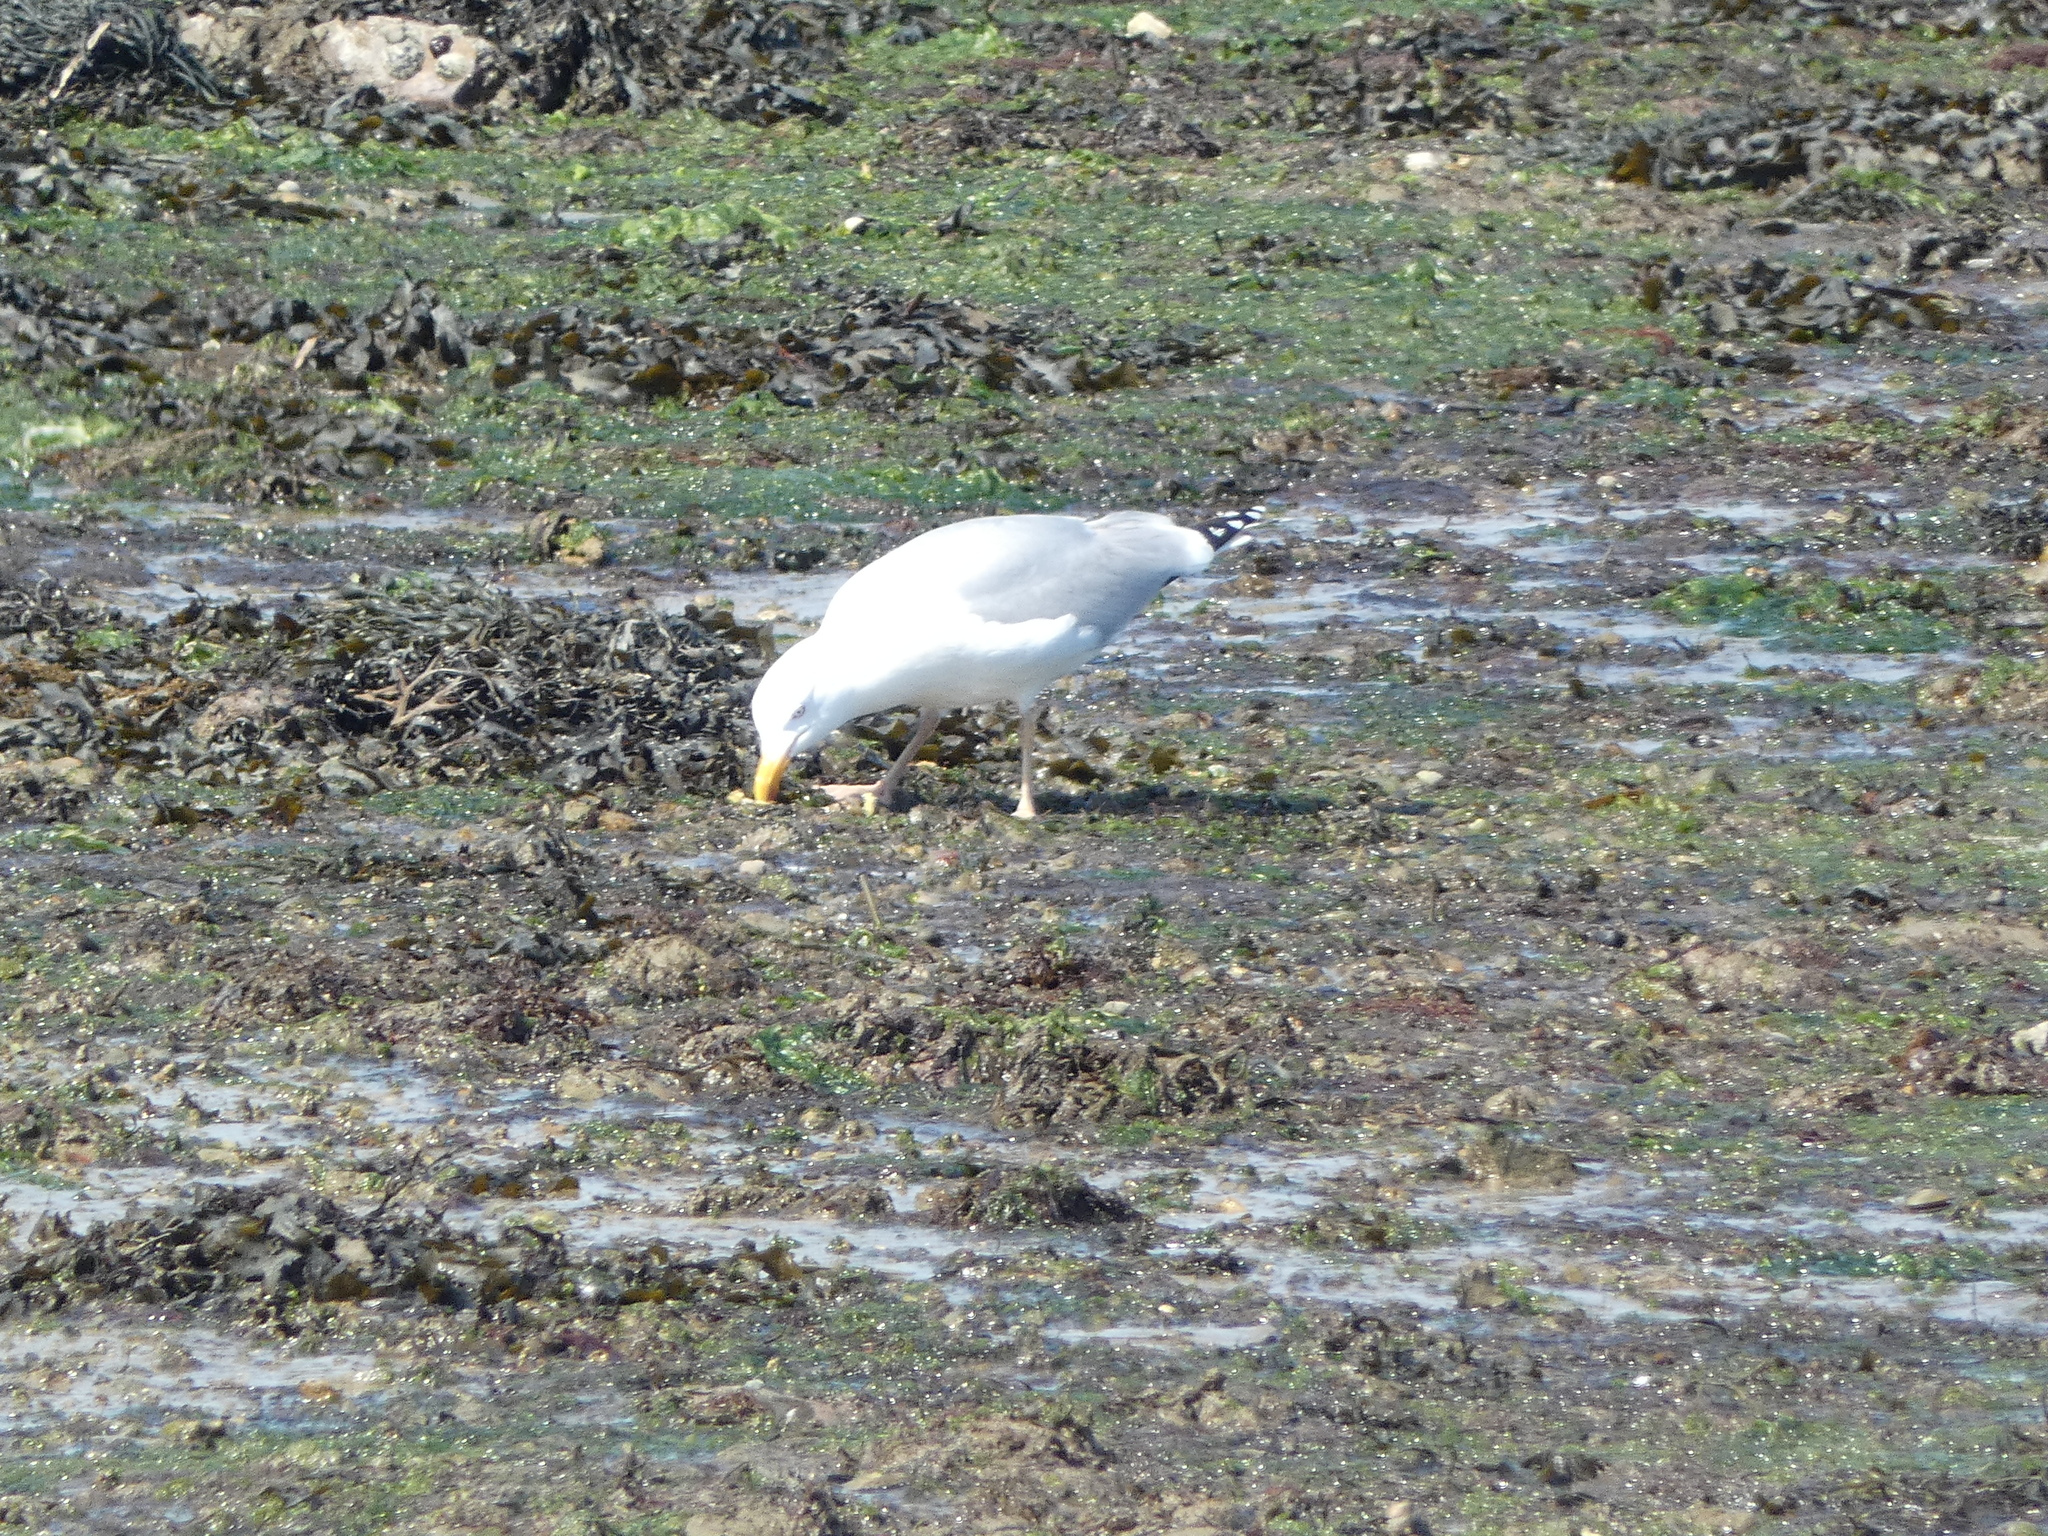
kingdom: Animalia
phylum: Chordata
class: Aves
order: Charadriiformes
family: Laridae
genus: Larus
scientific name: Larus argentatus
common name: Herring gull
